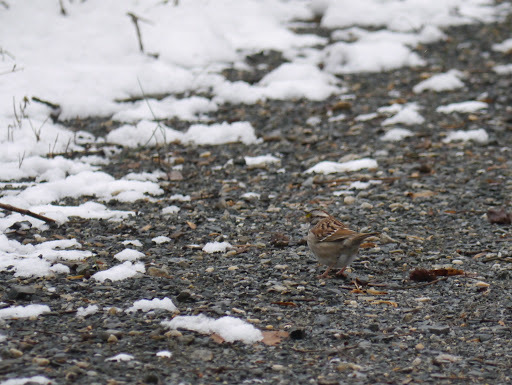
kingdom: Animalia
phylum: Chordata
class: Aves
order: Passeriformes
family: Passerellidae
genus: Zonotrichia
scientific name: Zonotrichia albicollis
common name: White-throated sparrow
